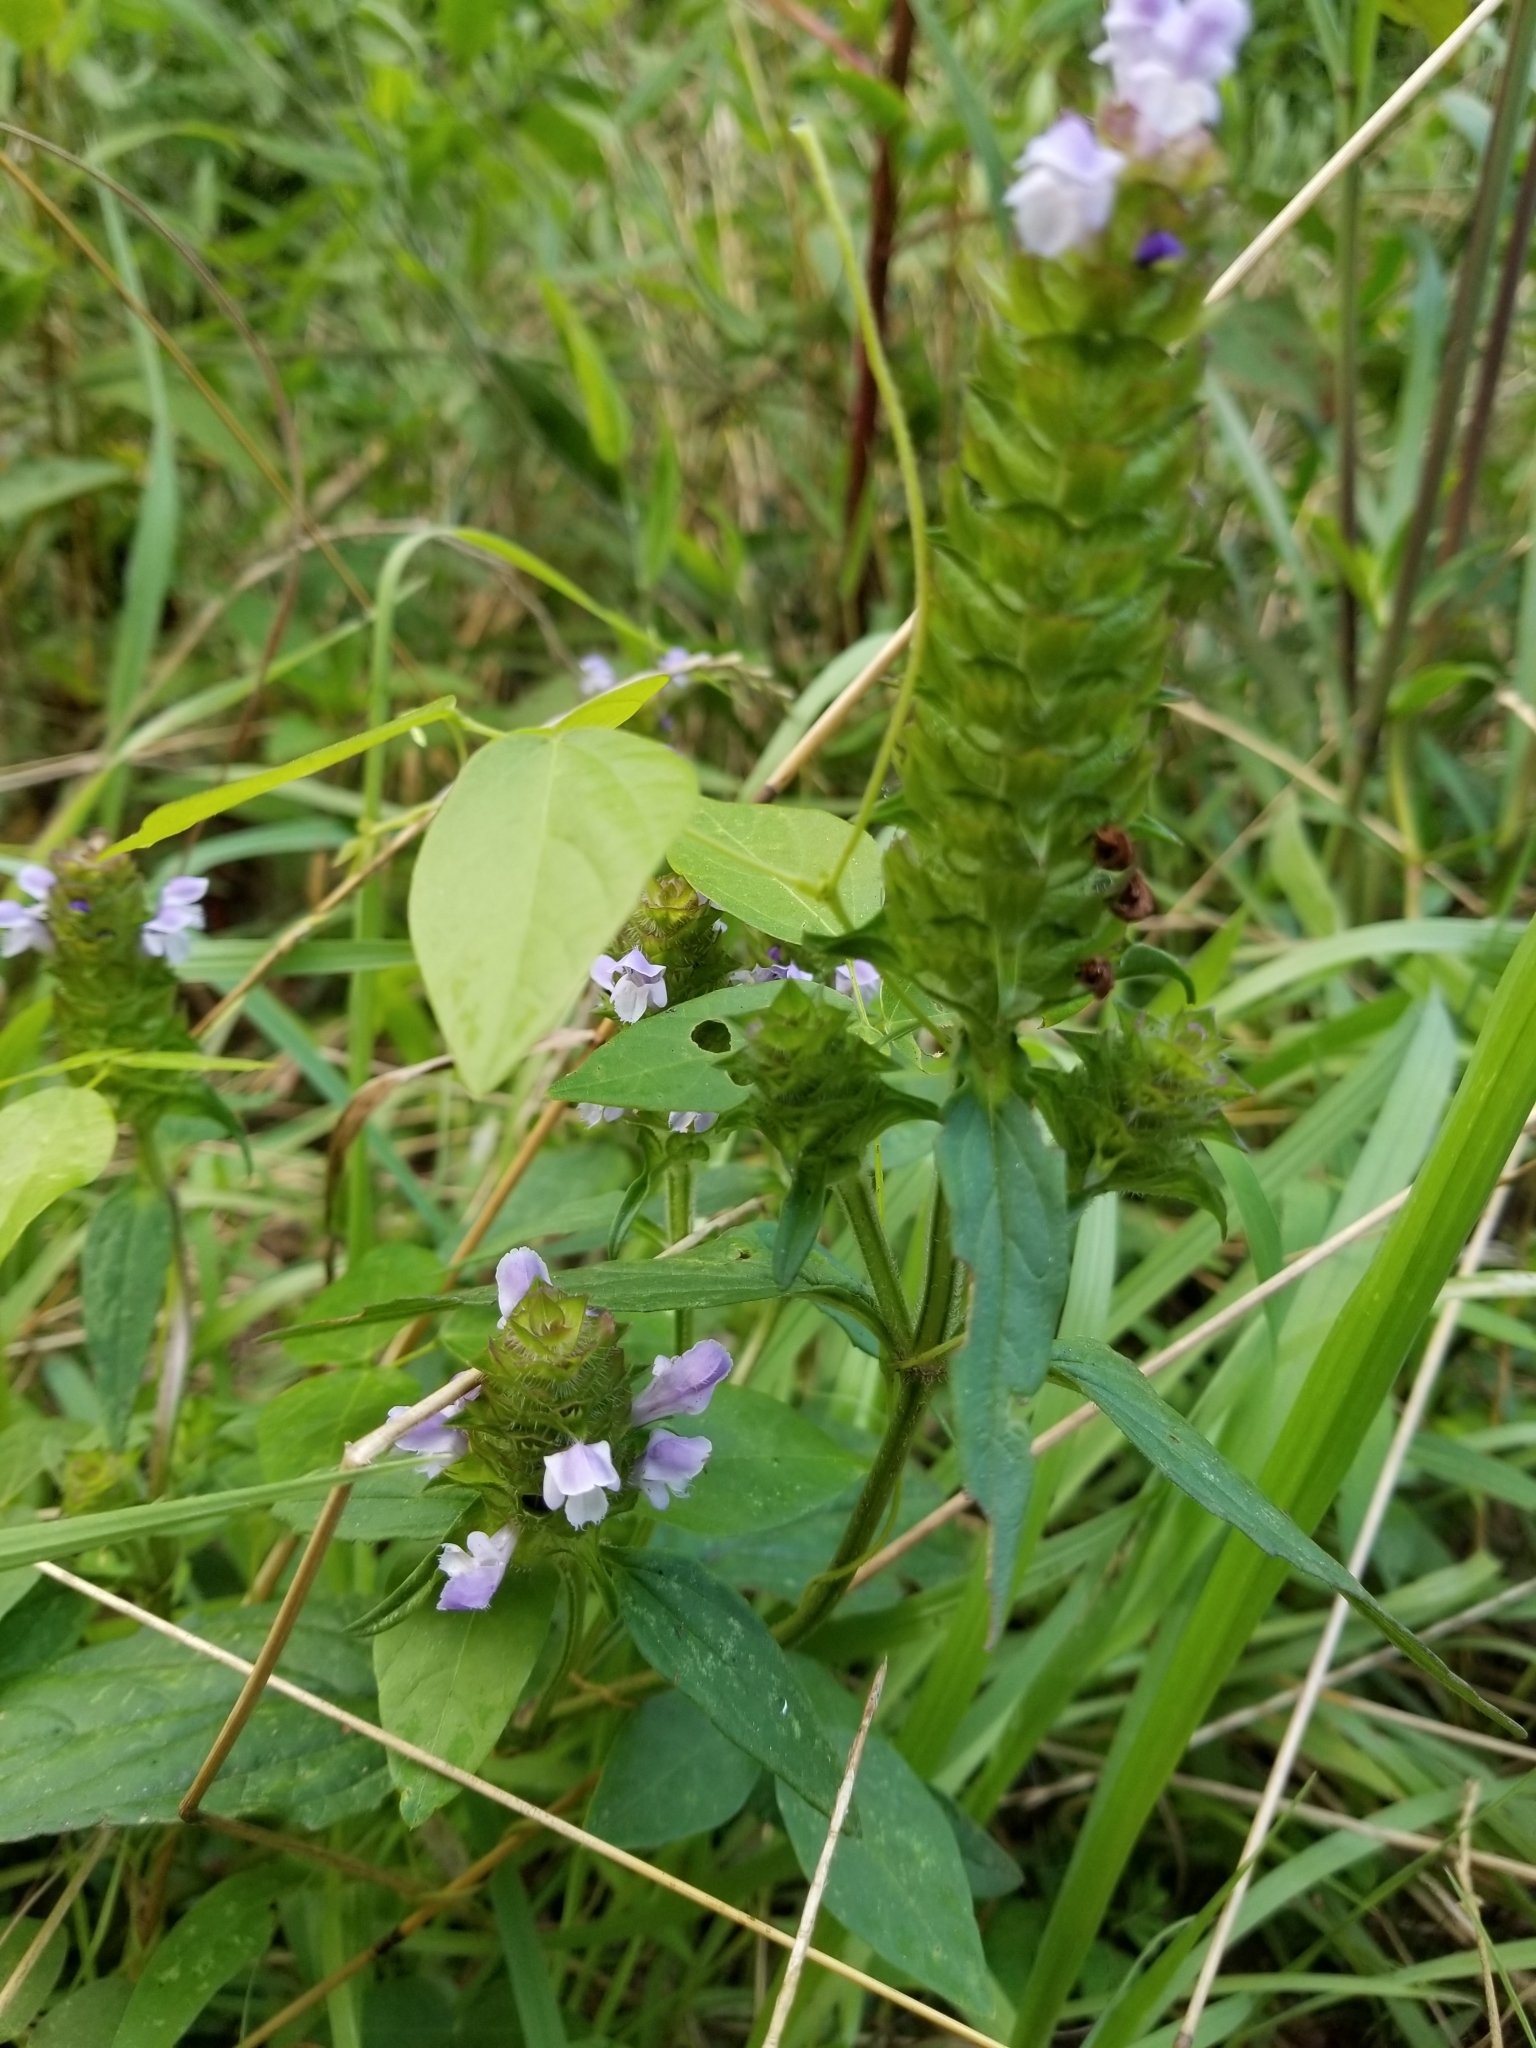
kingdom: Plantae
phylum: Tracheophyta
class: Magnoliopsida
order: Lamiales
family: Lamiaceae
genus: Prunella
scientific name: Prunella vulgaris
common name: Heal-all
